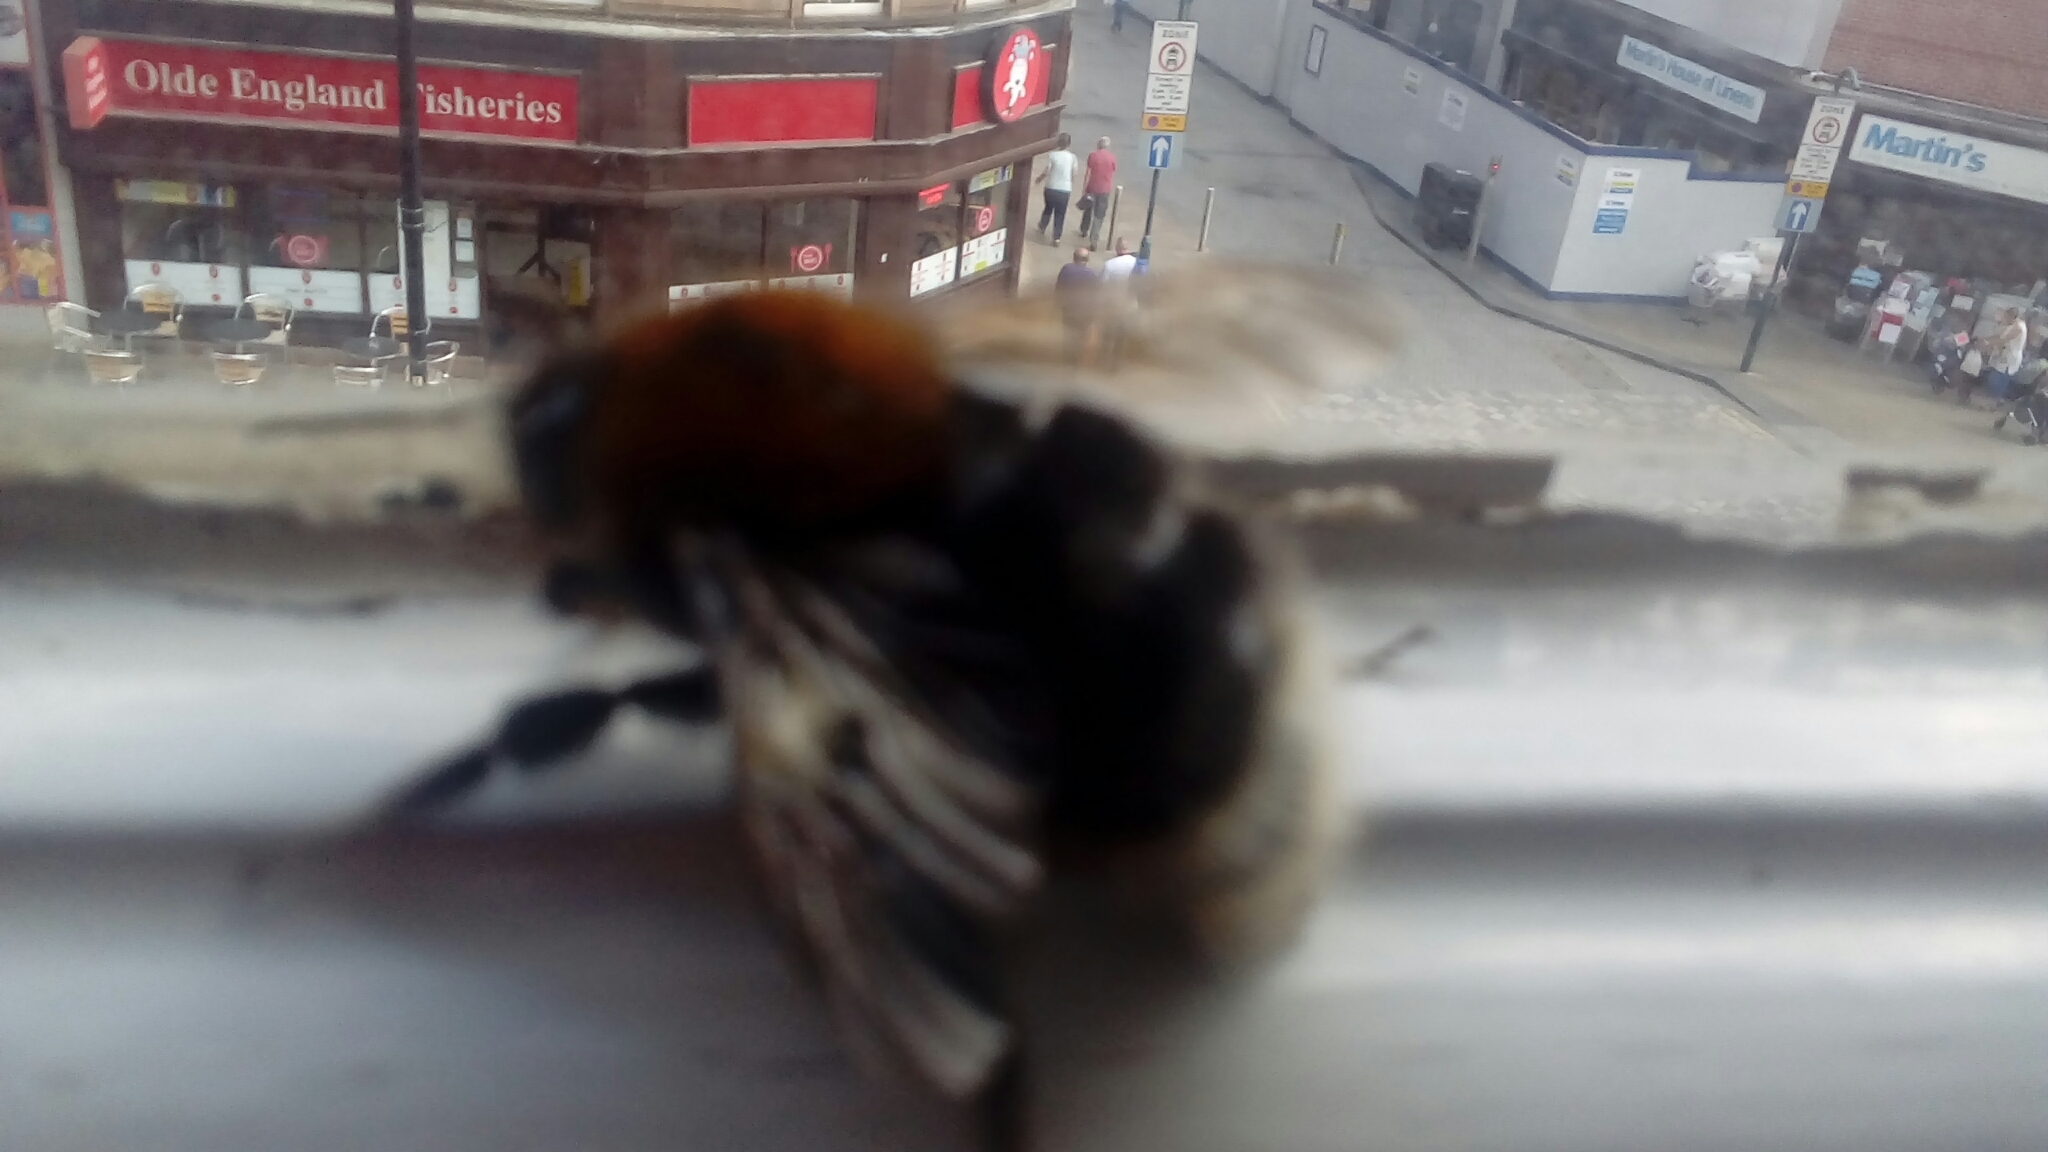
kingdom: Animalia
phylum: Arthropoda
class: Insecta
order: Hymenoptera
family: Apidae
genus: Bombus
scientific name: Bombus hypnorum
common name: New garden bumblebee
